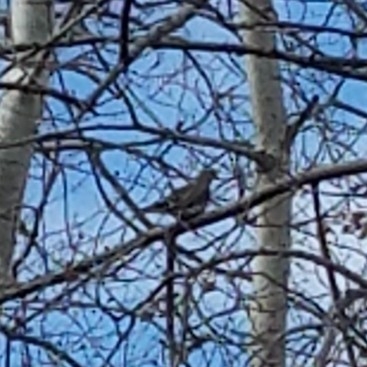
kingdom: Animalia
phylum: Chordata
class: Aves
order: Columbiformes
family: Columbidae
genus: Zenaida
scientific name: Zenaida macroura
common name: Mourning dove
